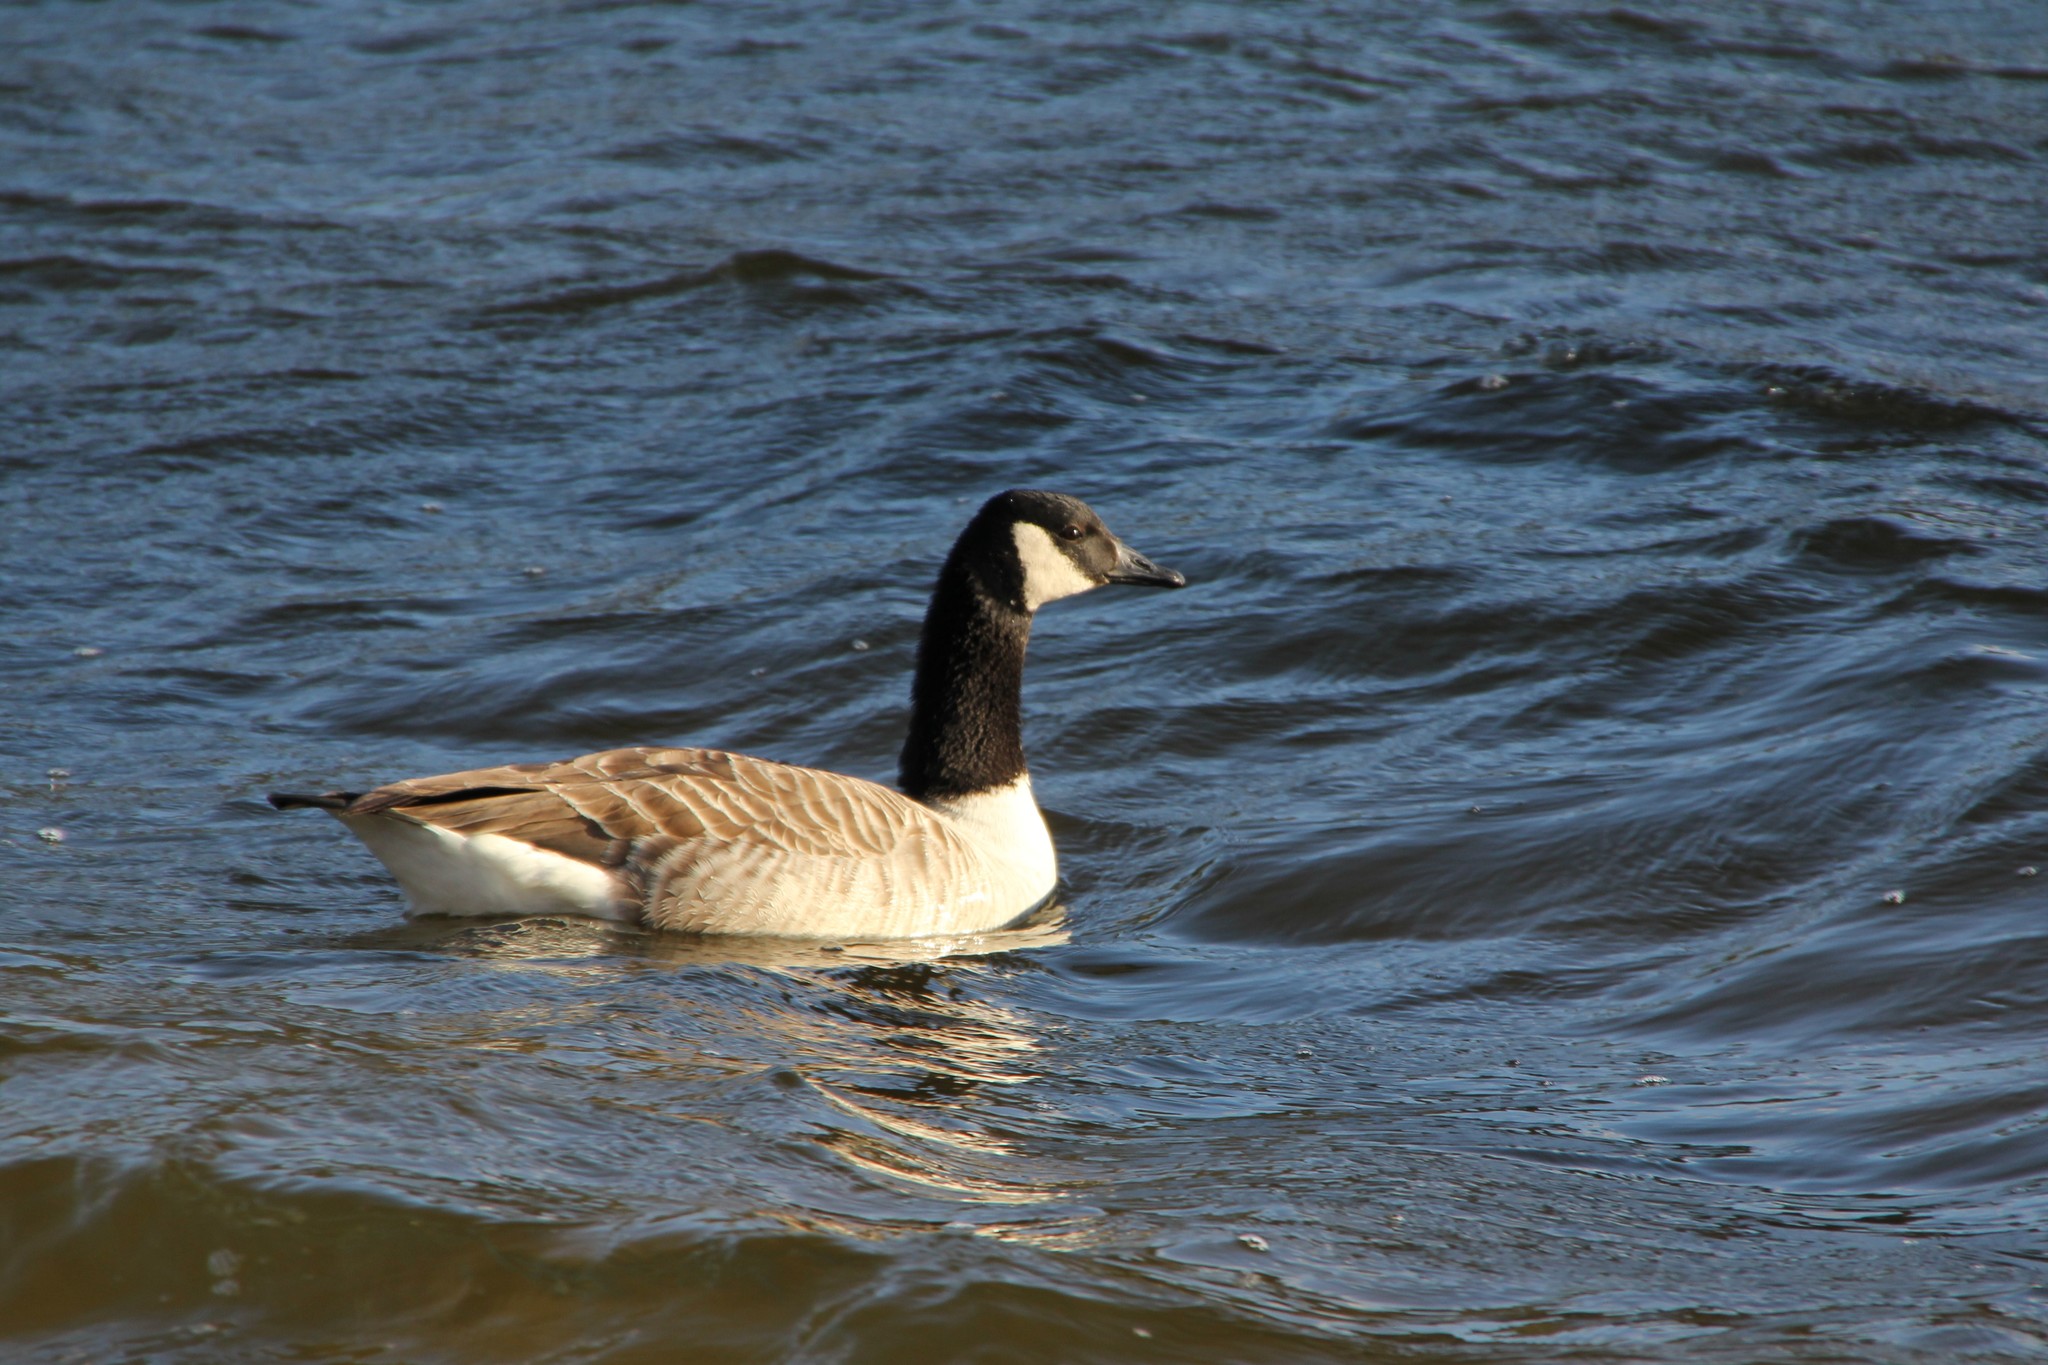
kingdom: Animalia
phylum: Chordata
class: Aves
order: Anseriformes
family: Anatidae
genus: Branta
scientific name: Branta canadensis
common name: Canada goose
